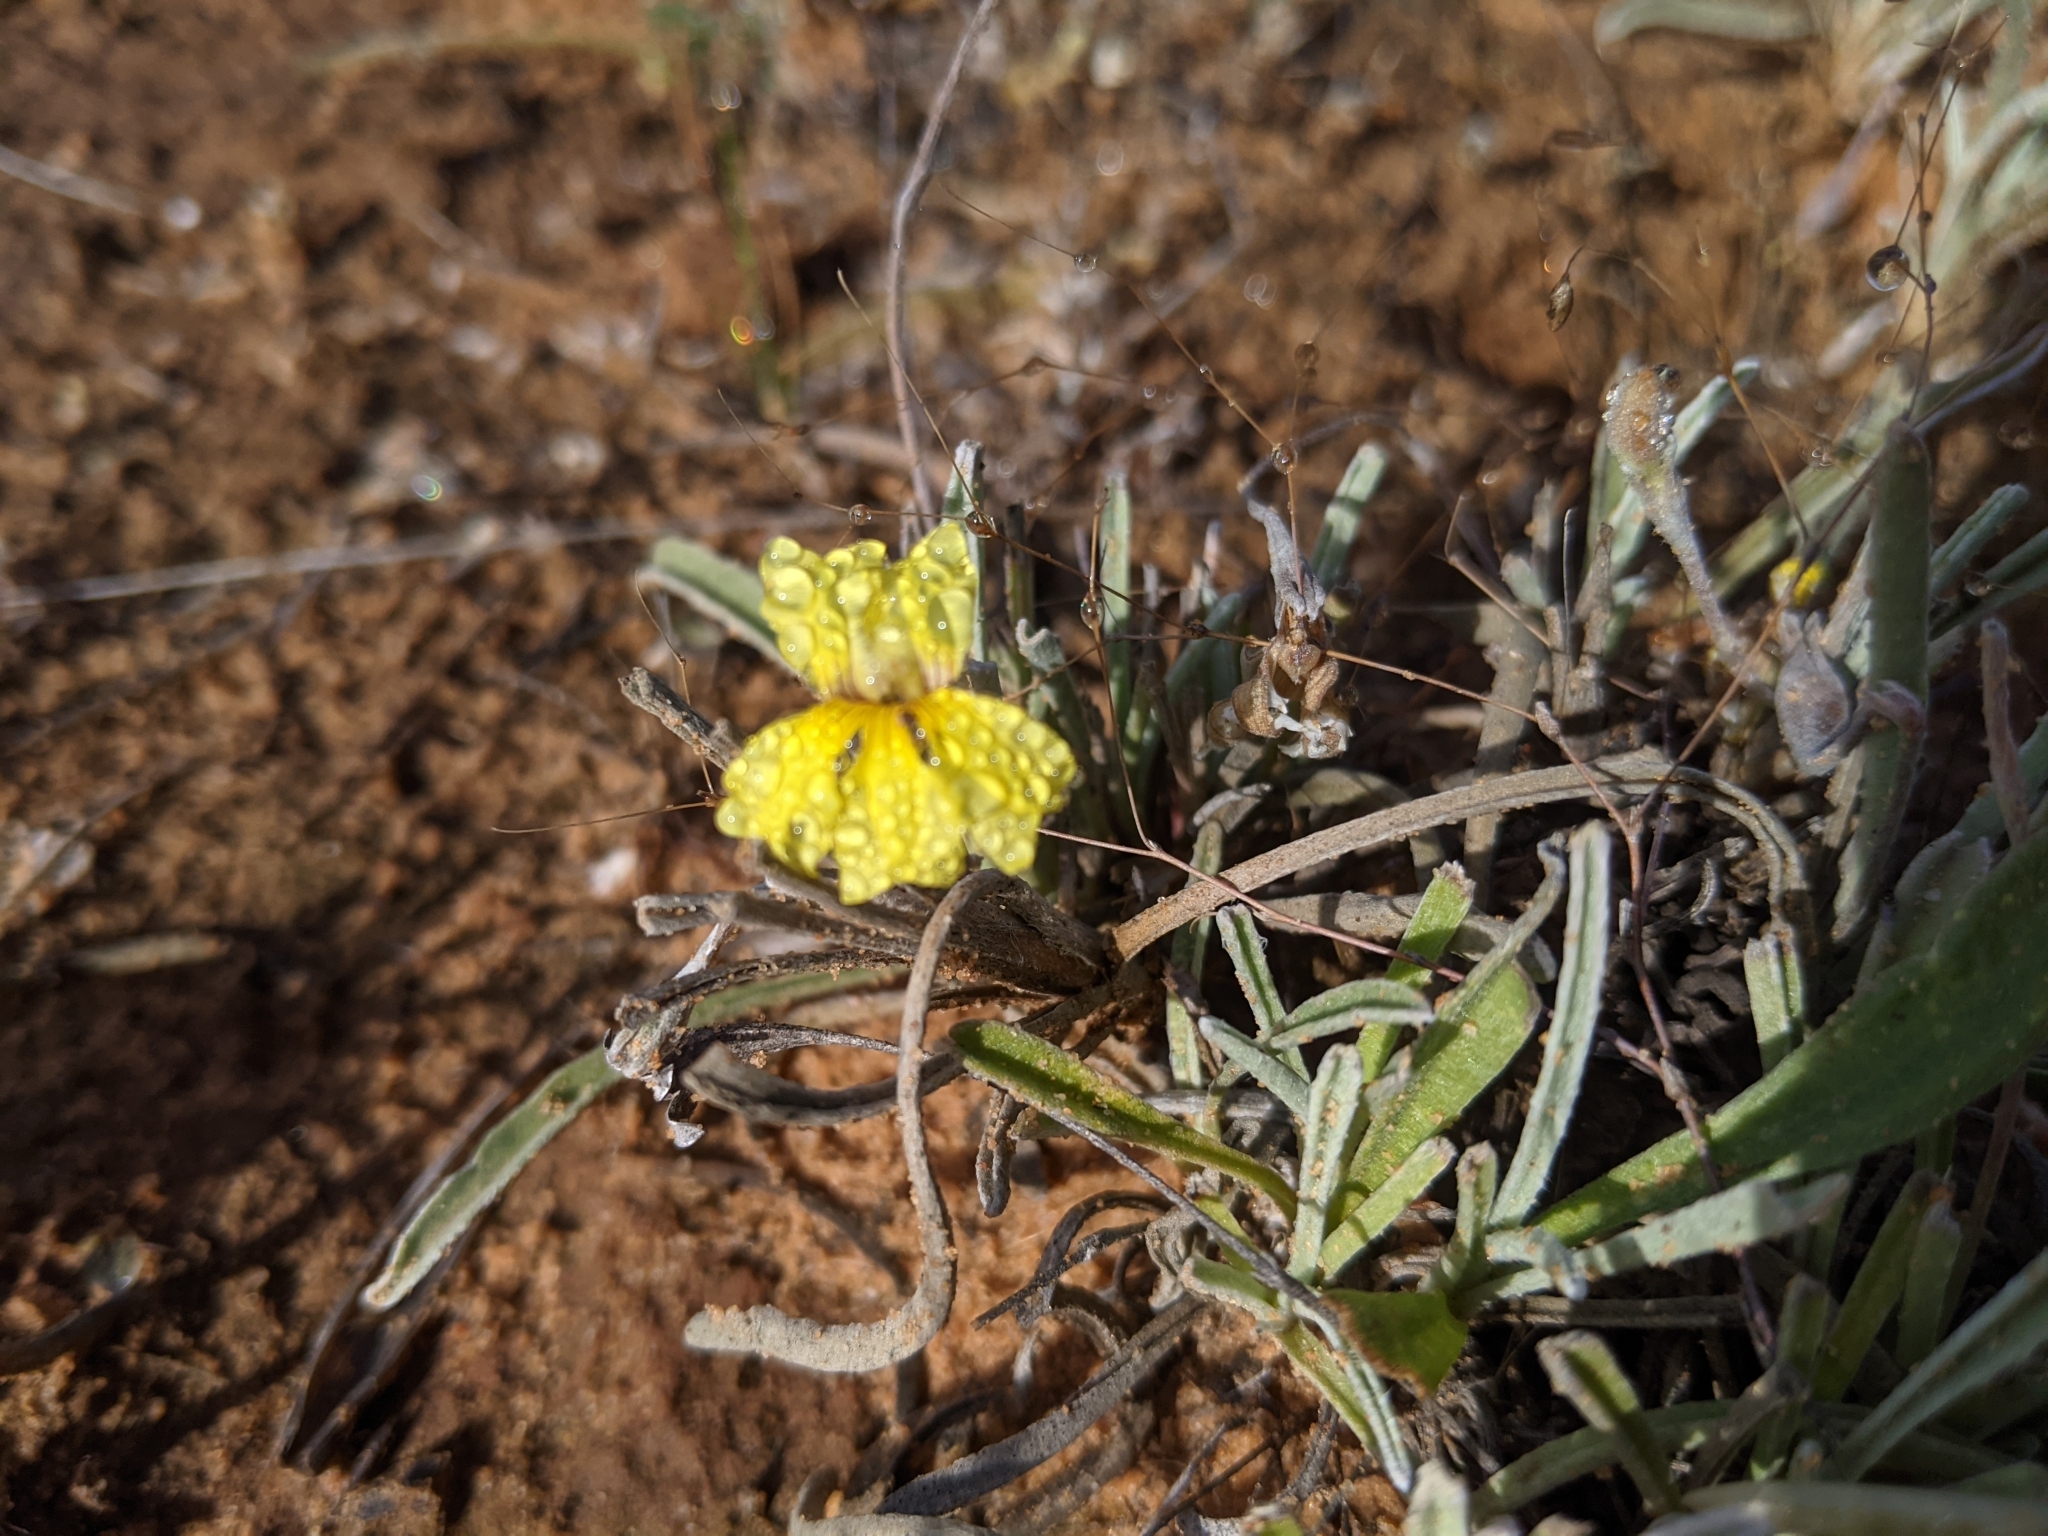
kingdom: Plantae
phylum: Tracheophyta
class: Magnoliopsida
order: Asterales
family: Goodeniaceae
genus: Goodenia
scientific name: Goodenia willisiana
